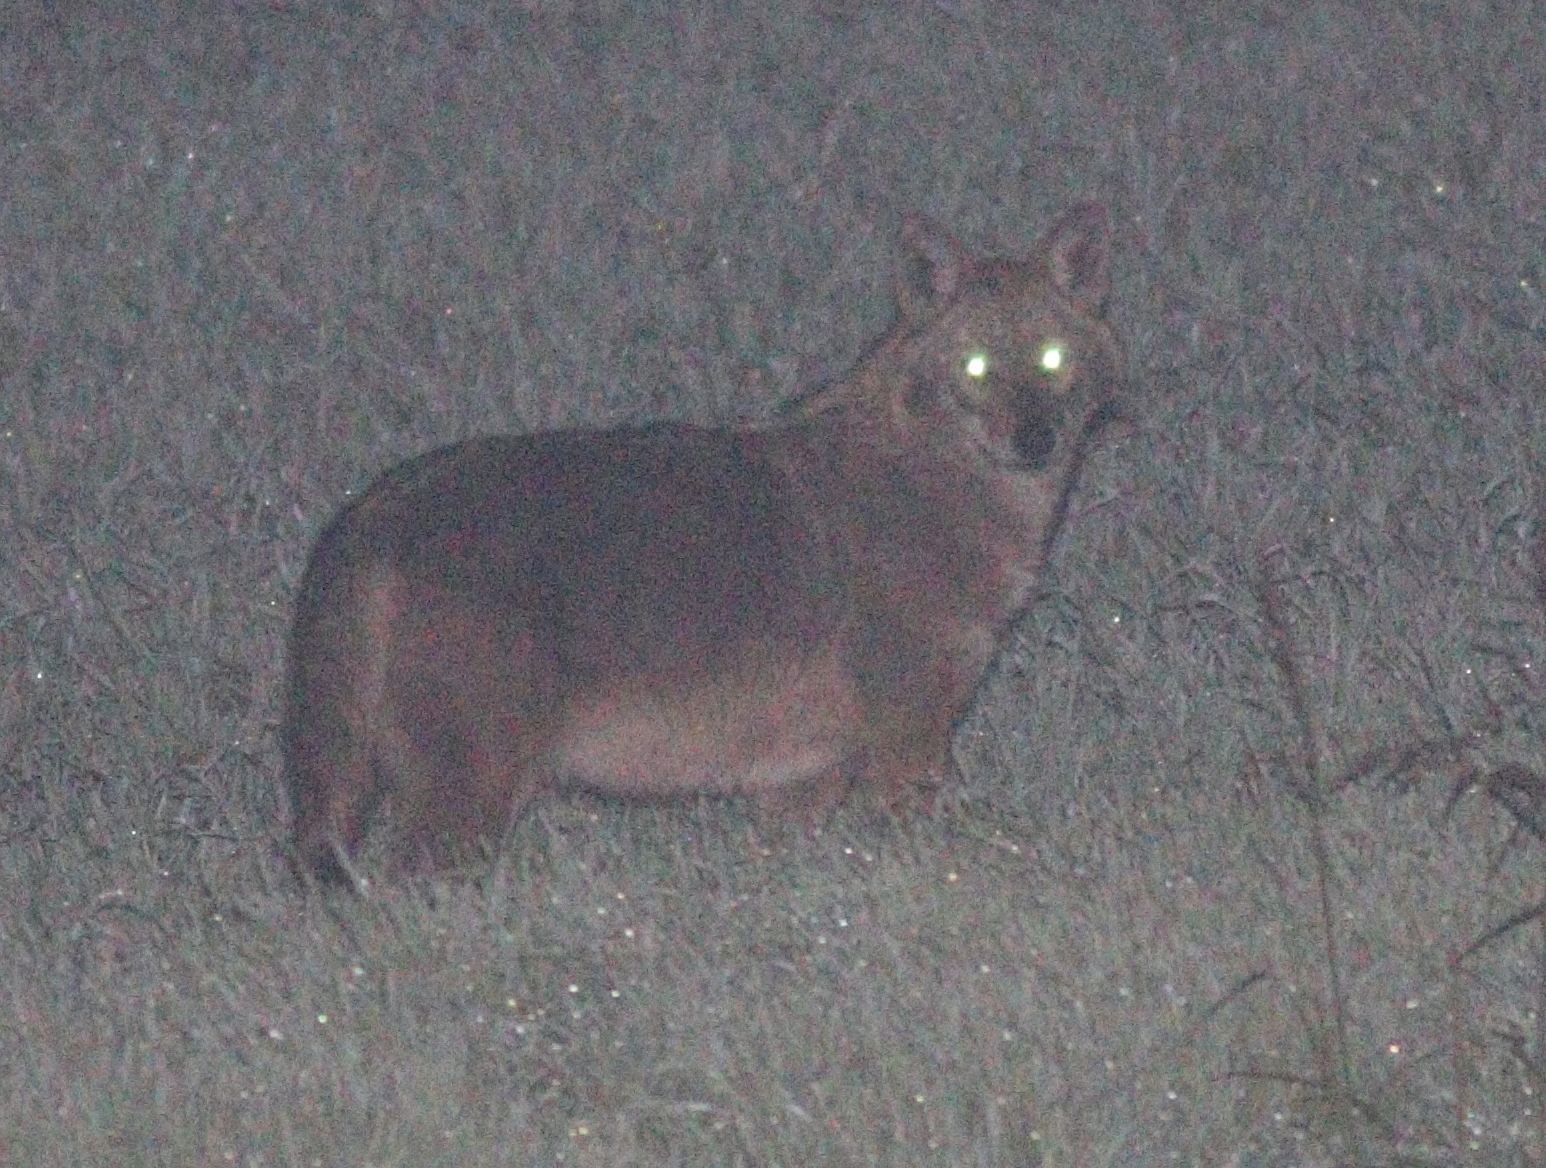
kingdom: Animalia
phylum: Chordata
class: Mammalia
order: Carnivora
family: Canidae
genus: Canis
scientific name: Canis aureus
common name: Golden jackal
